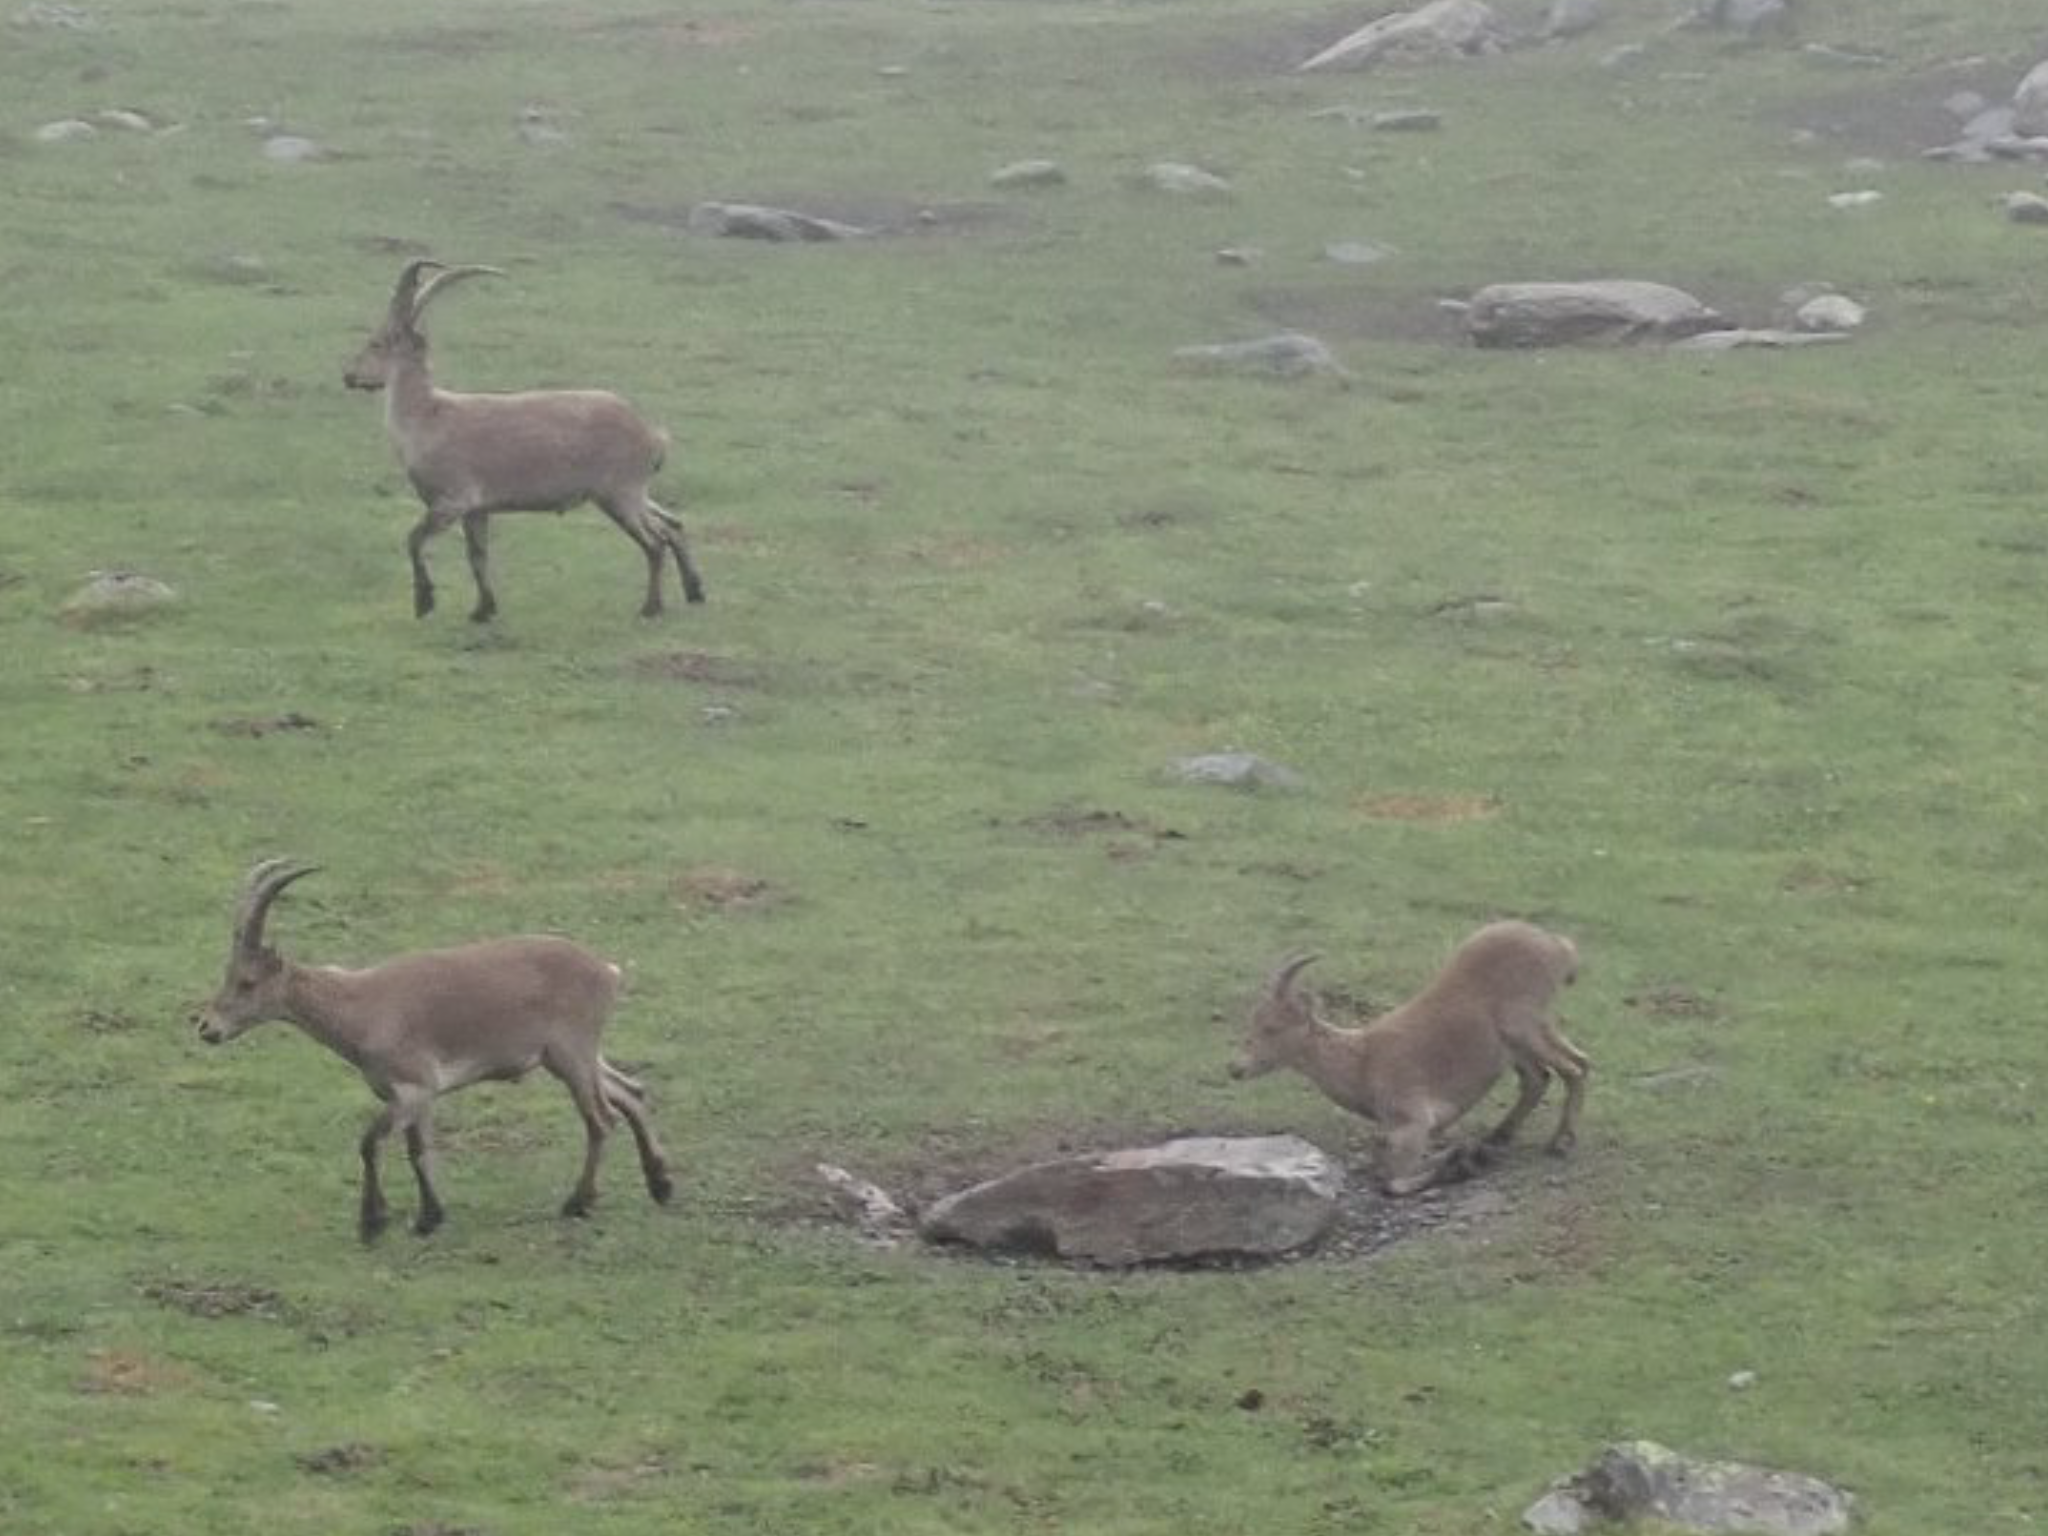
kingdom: Animalia
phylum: Chordata
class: Mammalia
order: Artiodactyla
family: Bovidae
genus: Capra
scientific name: Capra pyrenaica
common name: Spanish ibex
